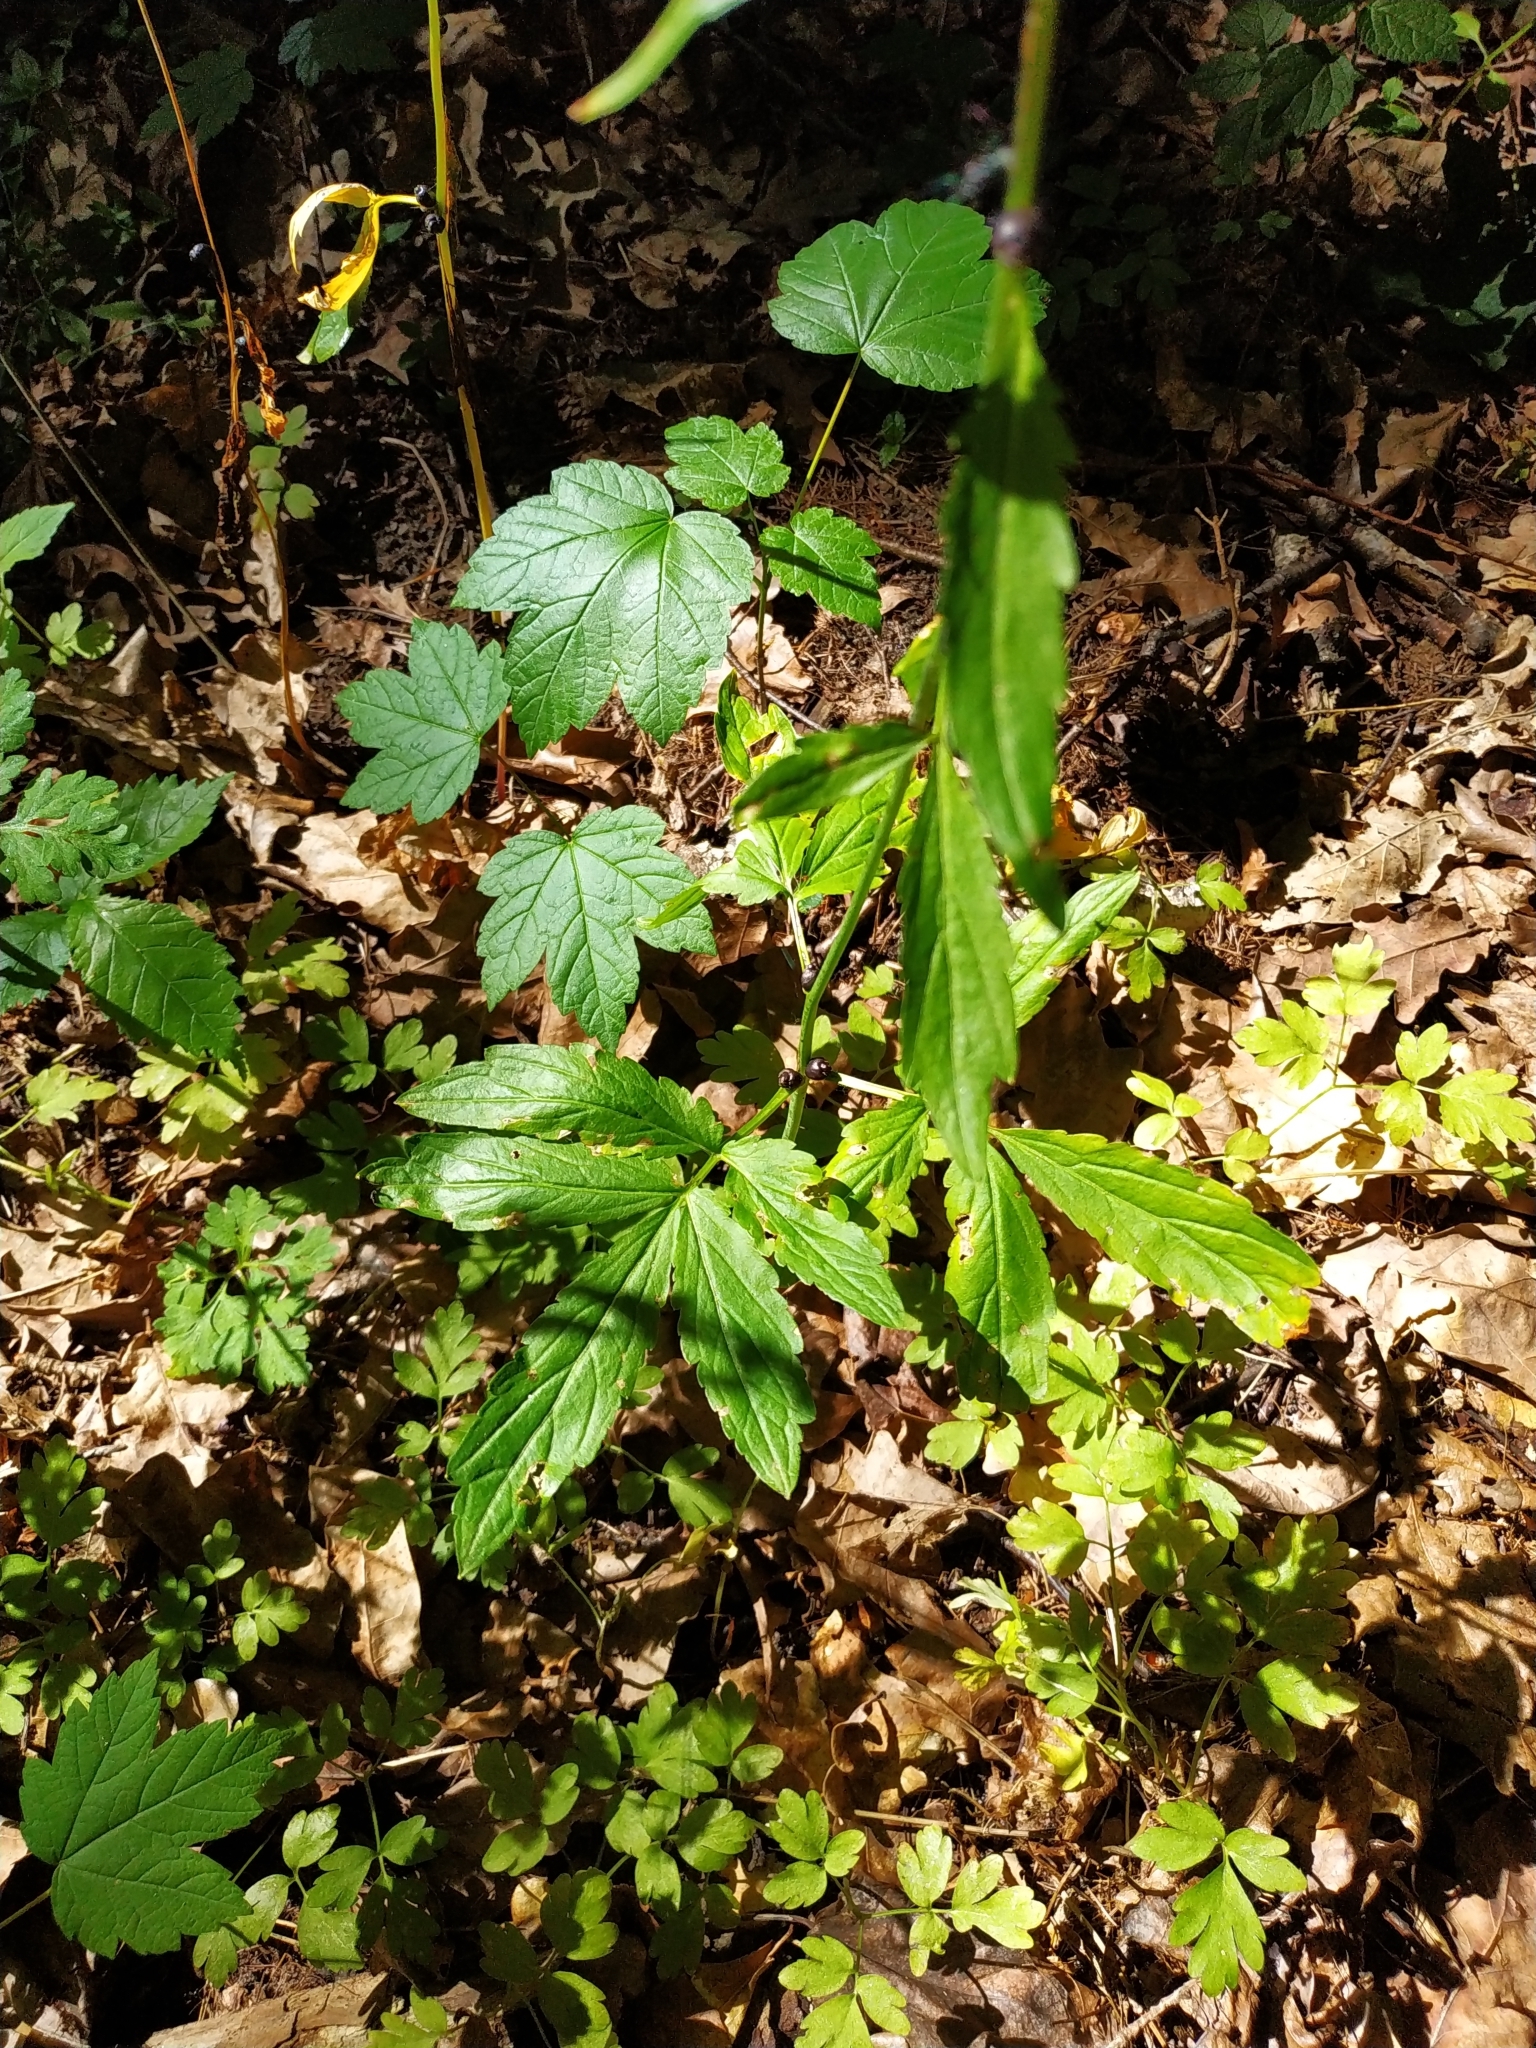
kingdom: Plantae
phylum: Tracheophyta
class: Magnoliopsida
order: Brassicales
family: Brassicaceae
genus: Cardamine
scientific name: Cardamine bulbifera
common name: Coralroot bittercress
